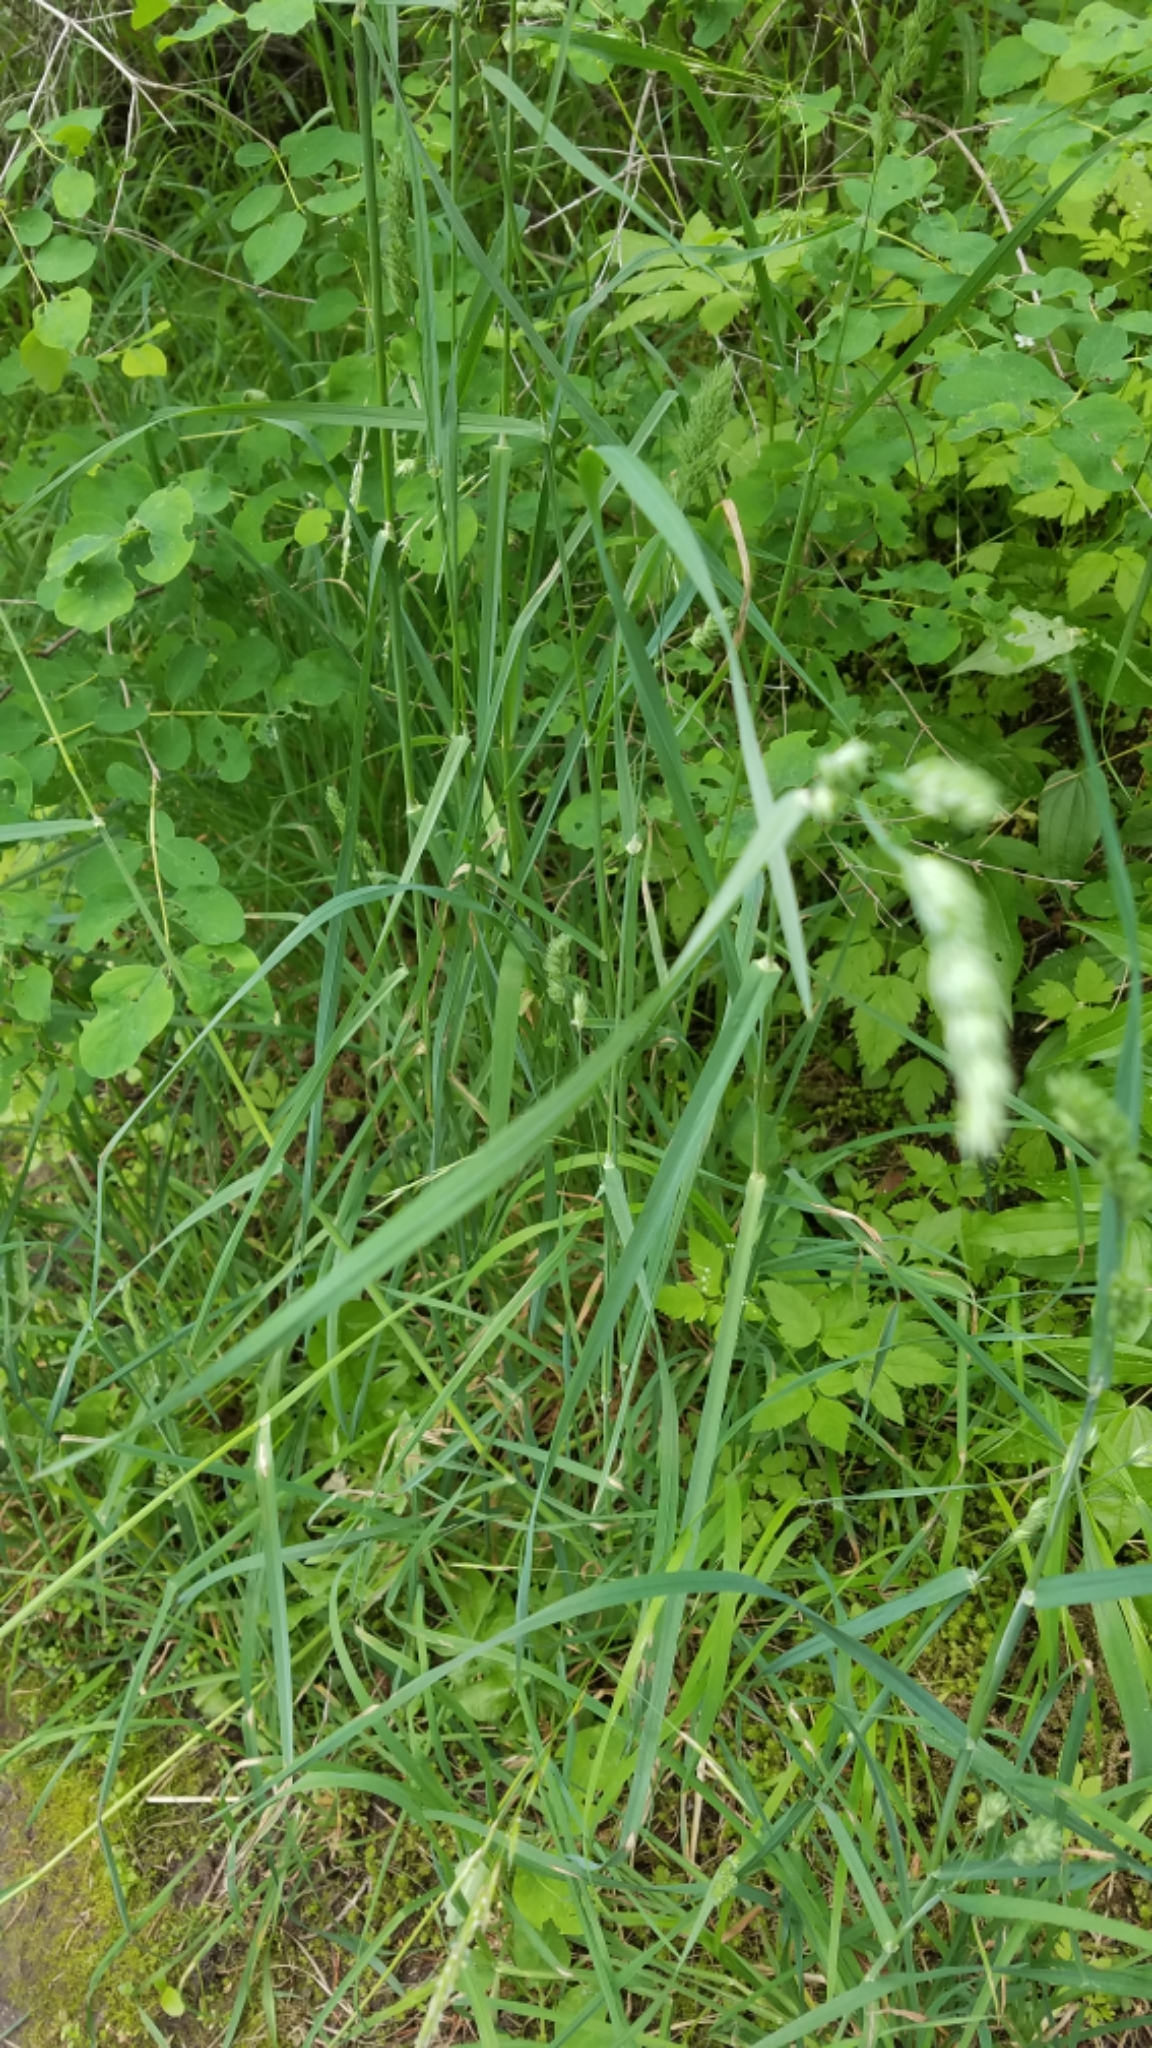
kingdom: Plantae
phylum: Tracheophyta
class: Liliopsida
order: Poales
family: Poaceae
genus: Dactylis
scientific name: Dactylis glomerata
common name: Orchardgrass
